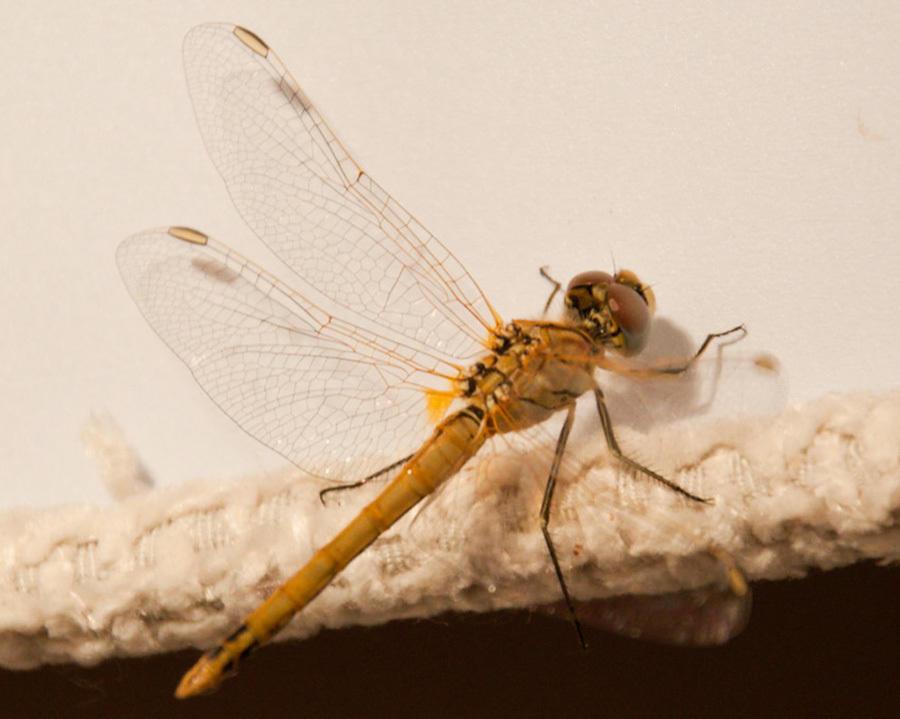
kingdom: Animalia
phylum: Arthropoda
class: Insecta
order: Odonata
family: Libellulidae
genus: Sympetrum
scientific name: Sympetrum fonscolombii
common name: Red-veined darter
